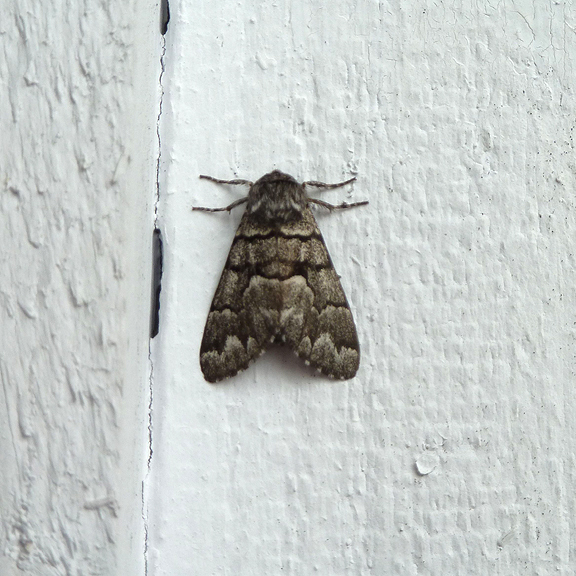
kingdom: Animalia
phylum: Arthropoda
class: Insecta
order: Lepidoptera
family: Noctuidae
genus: Panthea
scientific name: Panthea furcilla
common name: Eastern panthea moth
